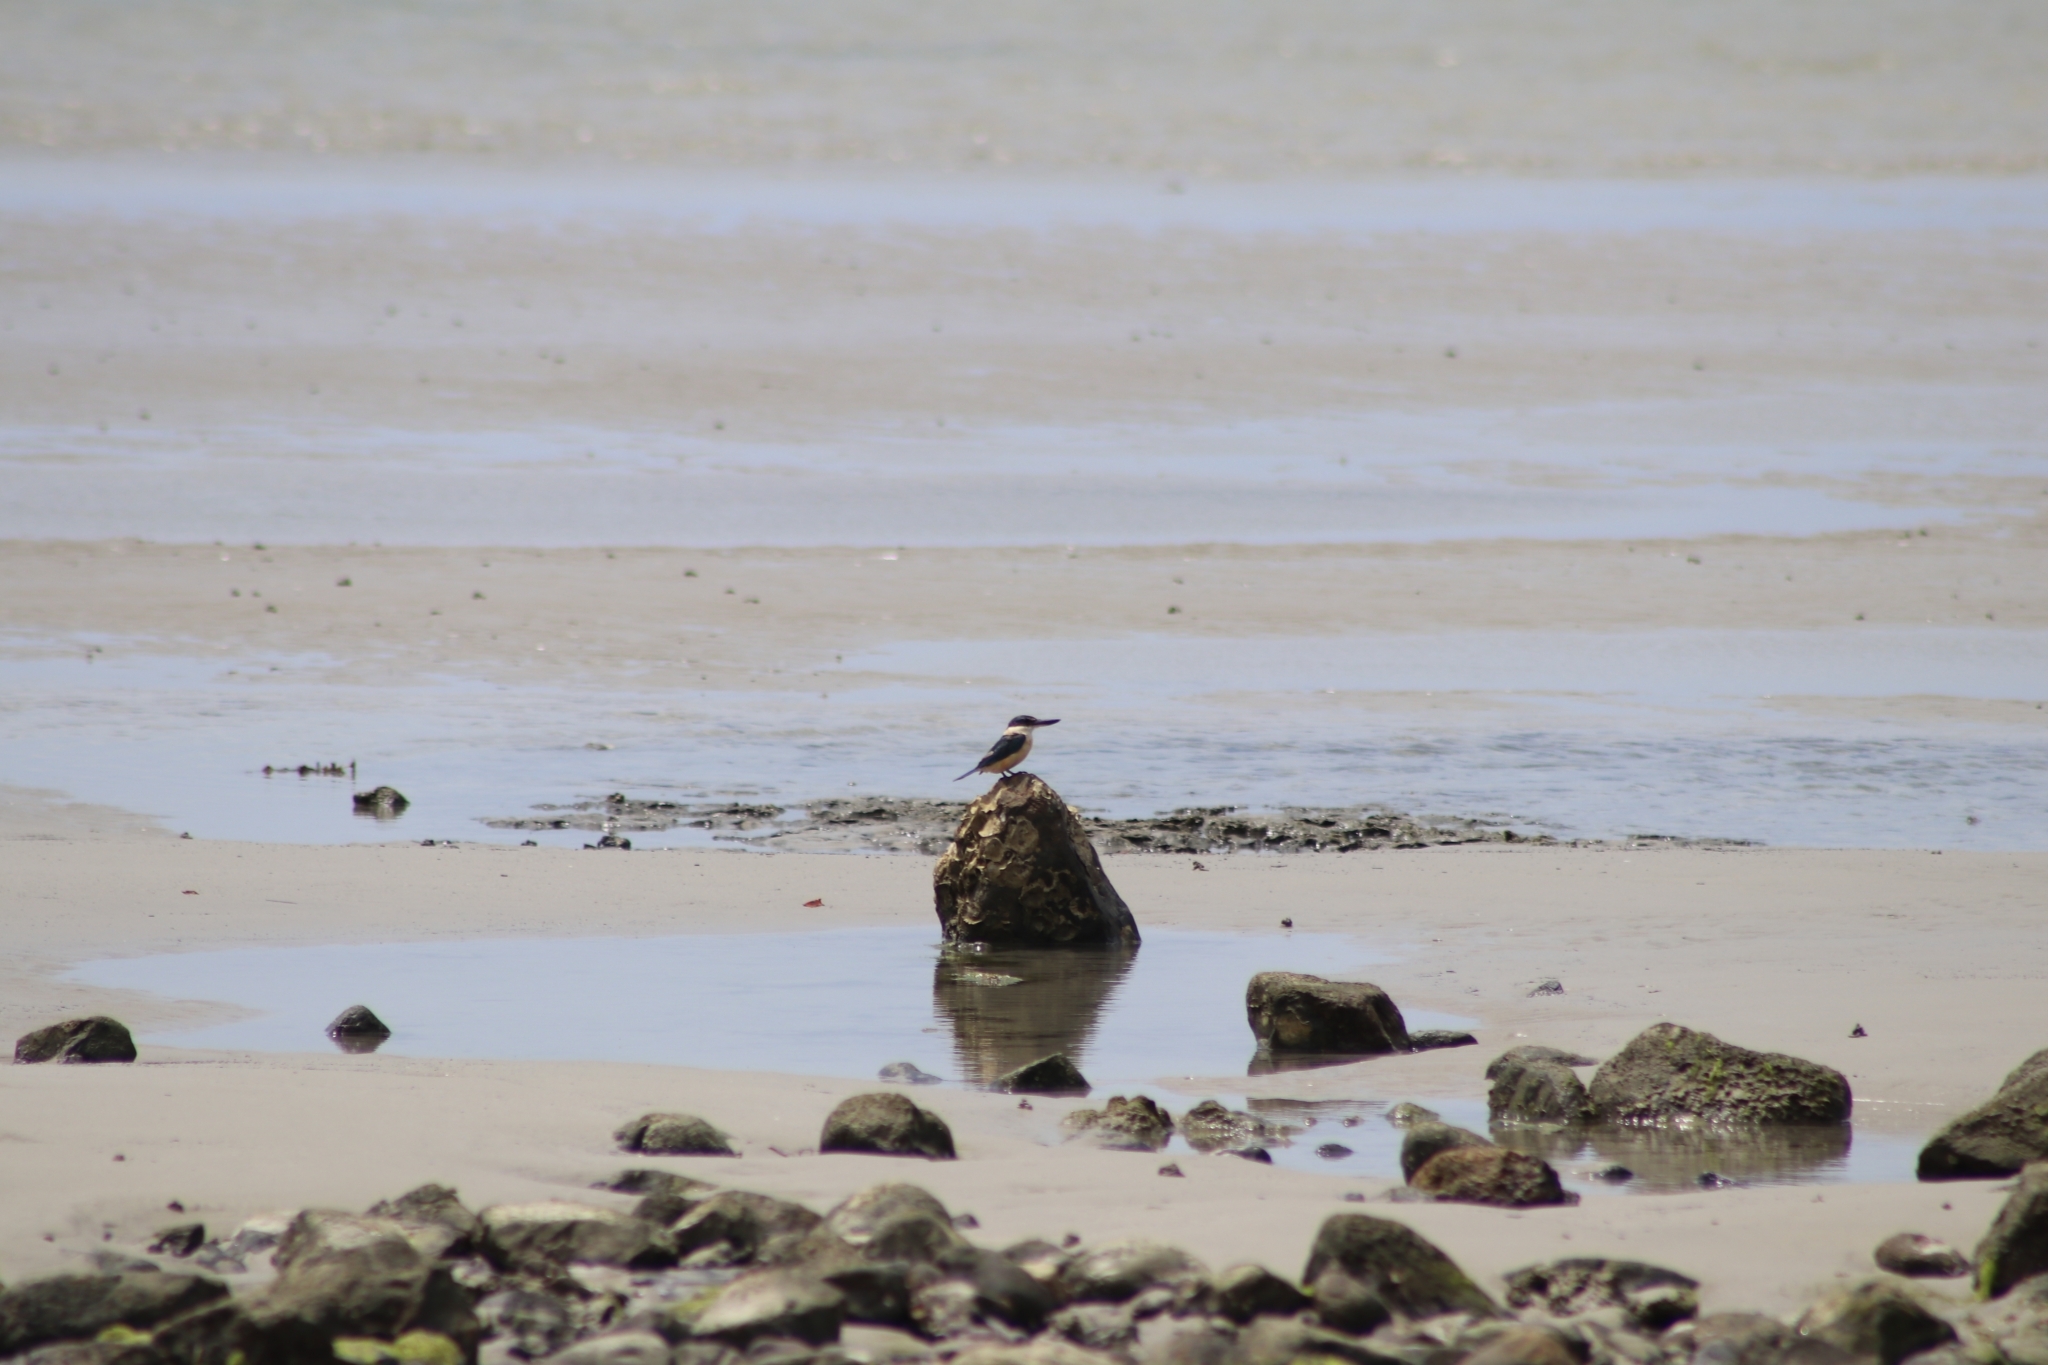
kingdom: Animalia
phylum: Chordata
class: Aves
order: Coraciiformes
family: Alcedinidae
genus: Todiramphus
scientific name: Todiramphus sanctus
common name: Sacred kingfisher
